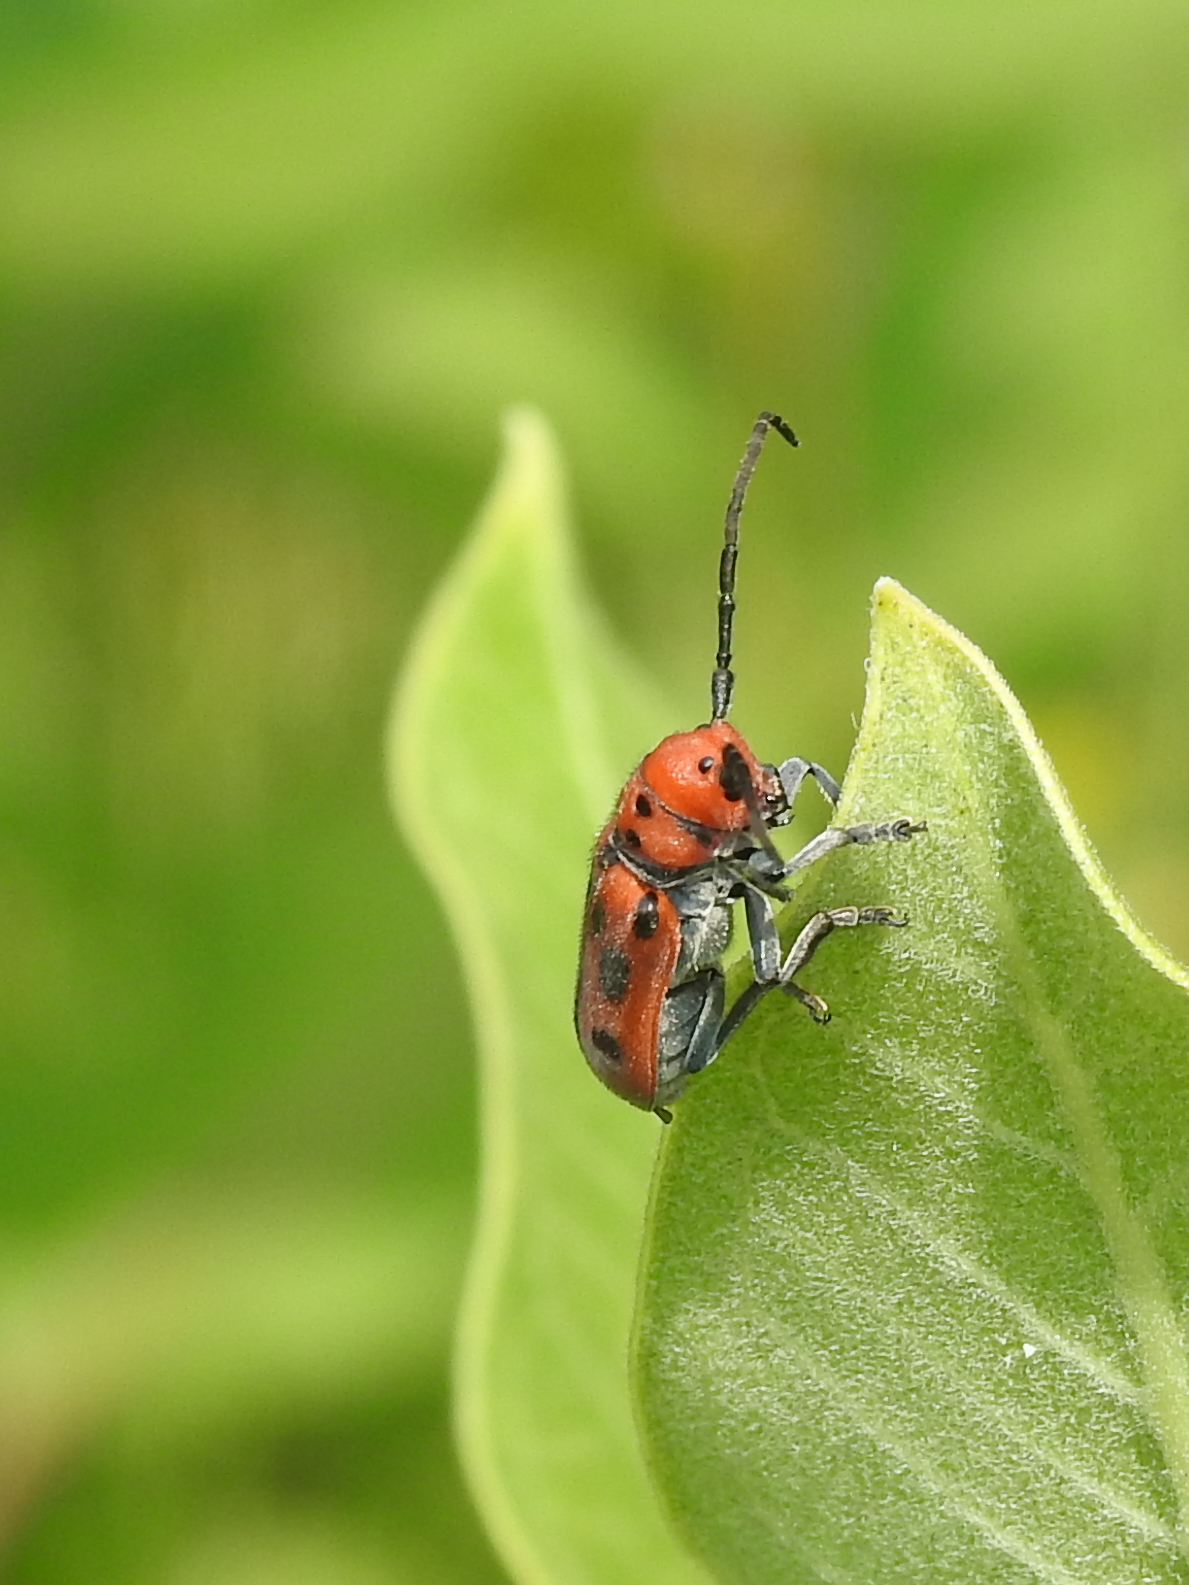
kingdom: Animalia
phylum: Arthropoda
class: Insecta
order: Coleoptera
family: Cerambycidae
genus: Tetraopes
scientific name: Tetraopes tetrophthalmus
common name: Red milkweed beetle
